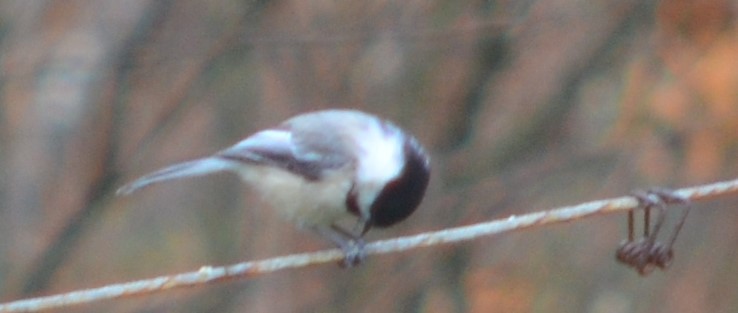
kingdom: Animalia
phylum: Chordata
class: Aves
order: Passeriformes
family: Paridae
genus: Poecile
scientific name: Poecile atricapillus
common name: Black-capped chickadee
